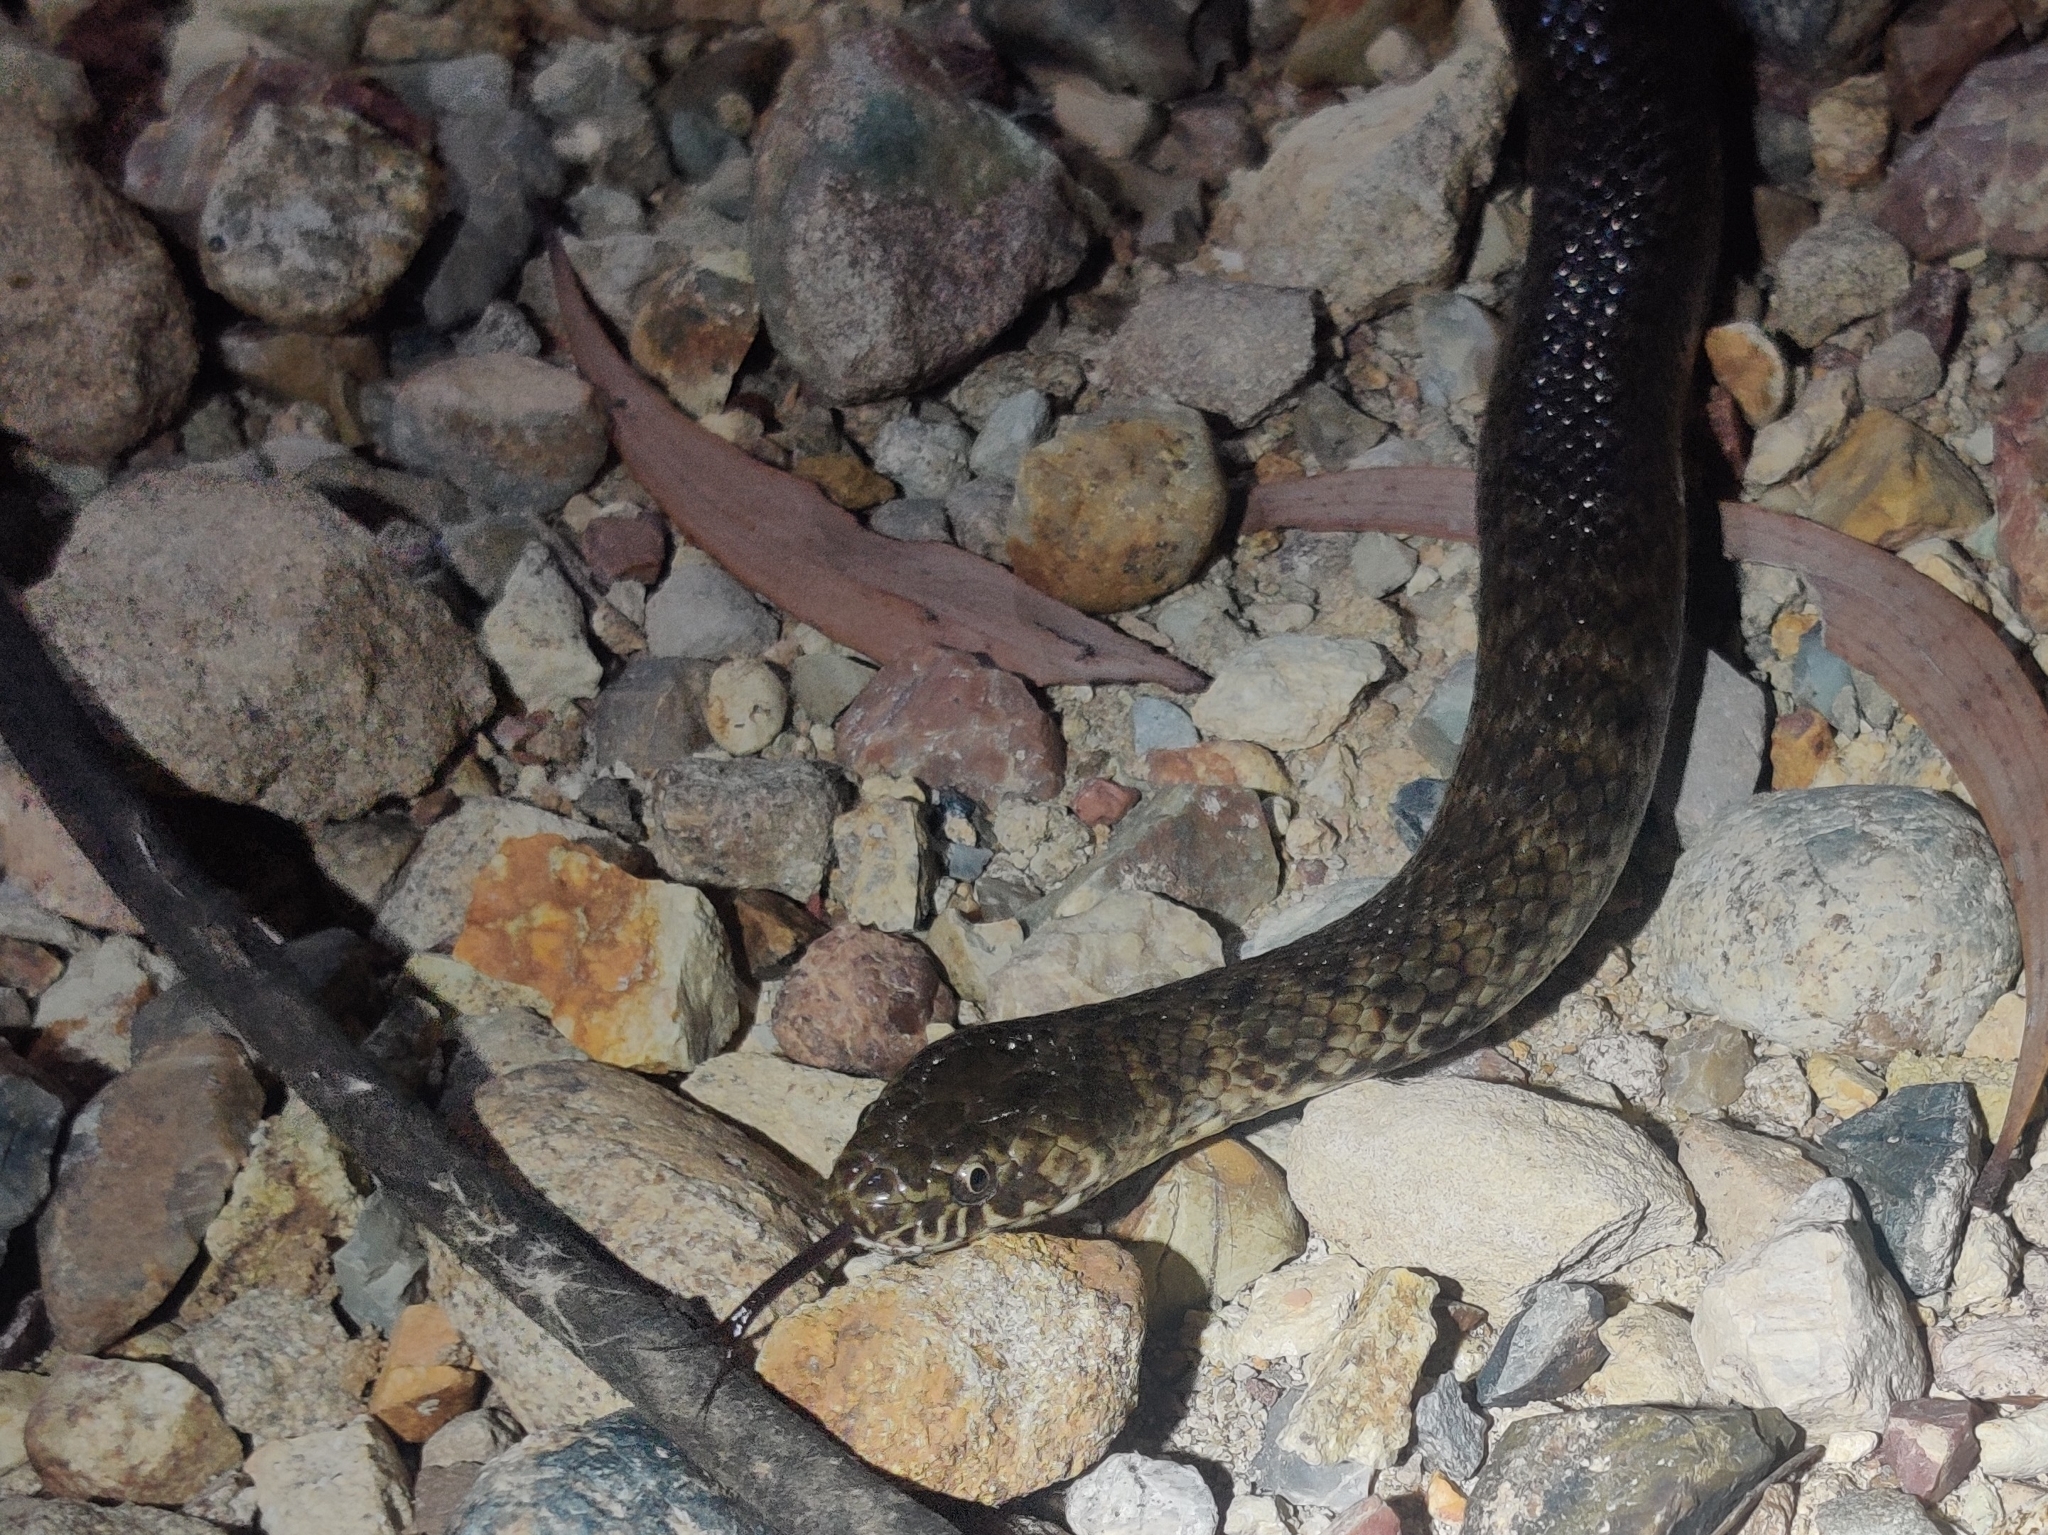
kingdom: Animalia
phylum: Chordata
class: Squamata
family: Elapidae
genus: Denisonia
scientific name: Denisonia devisi
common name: De vis banded snake
